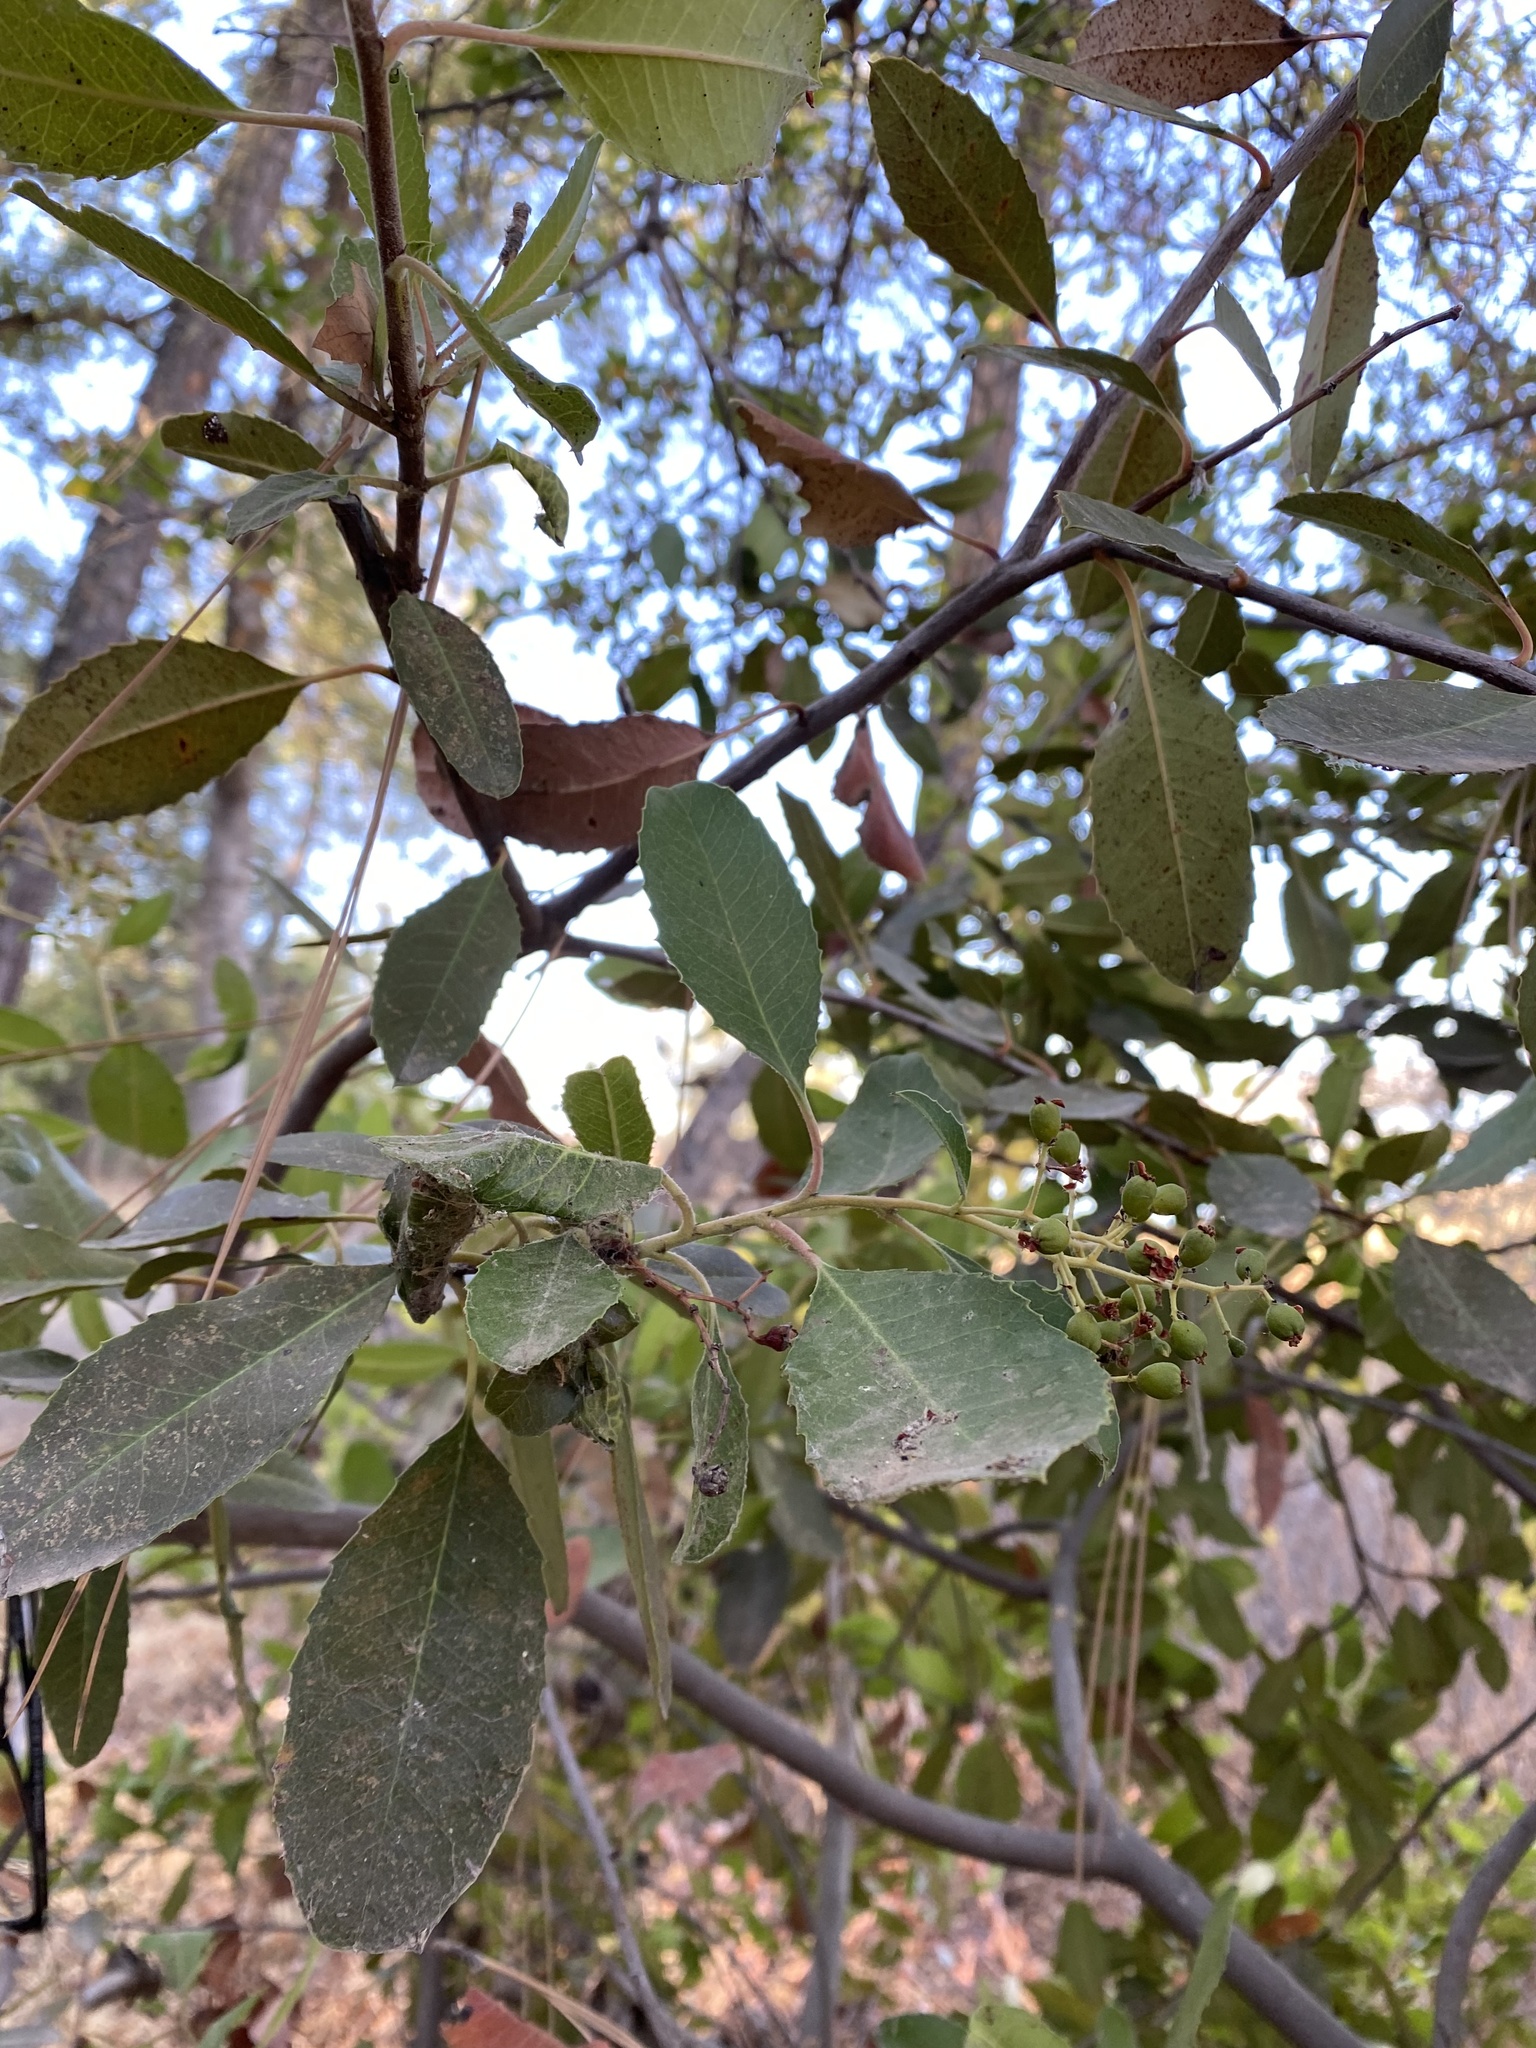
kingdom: Plantae
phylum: Tracheophyta
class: Magnoliopsida
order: Rosales
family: Rosaceae
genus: Heteromeles
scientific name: Heteromeles arbutifolia
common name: California-holly
